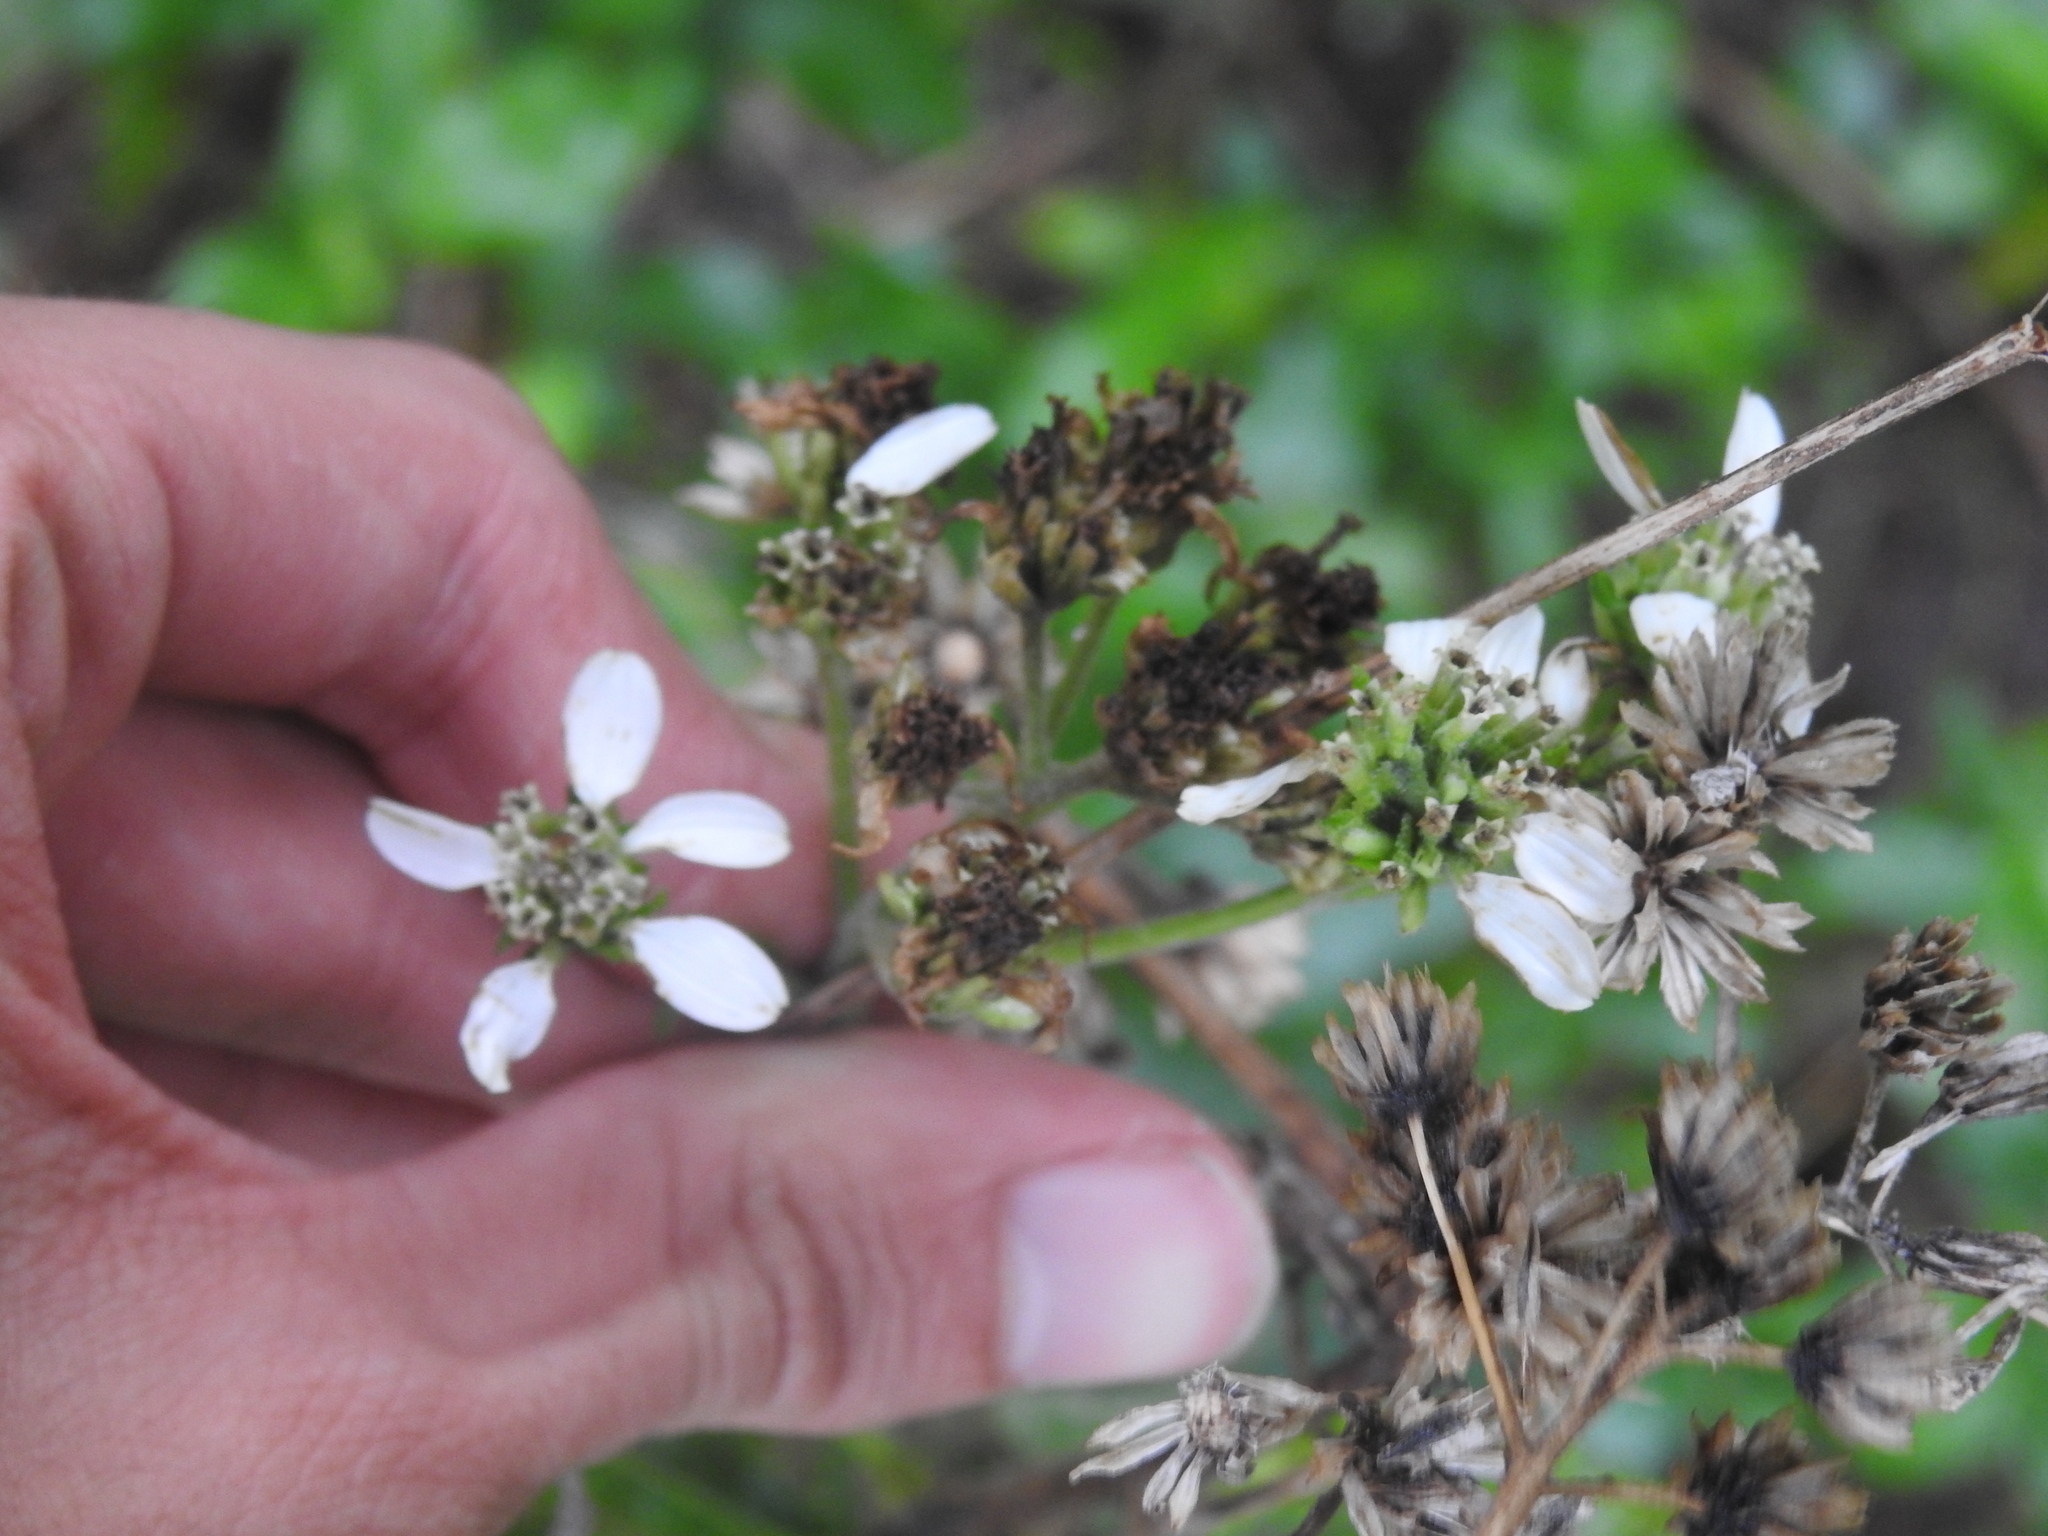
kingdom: Plantae
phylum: Tracheophyta
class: Magnoliopsida
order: Asterales
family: Asteraceae
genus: Verbesina
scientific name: Verbesina virginica
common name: Frostweed
